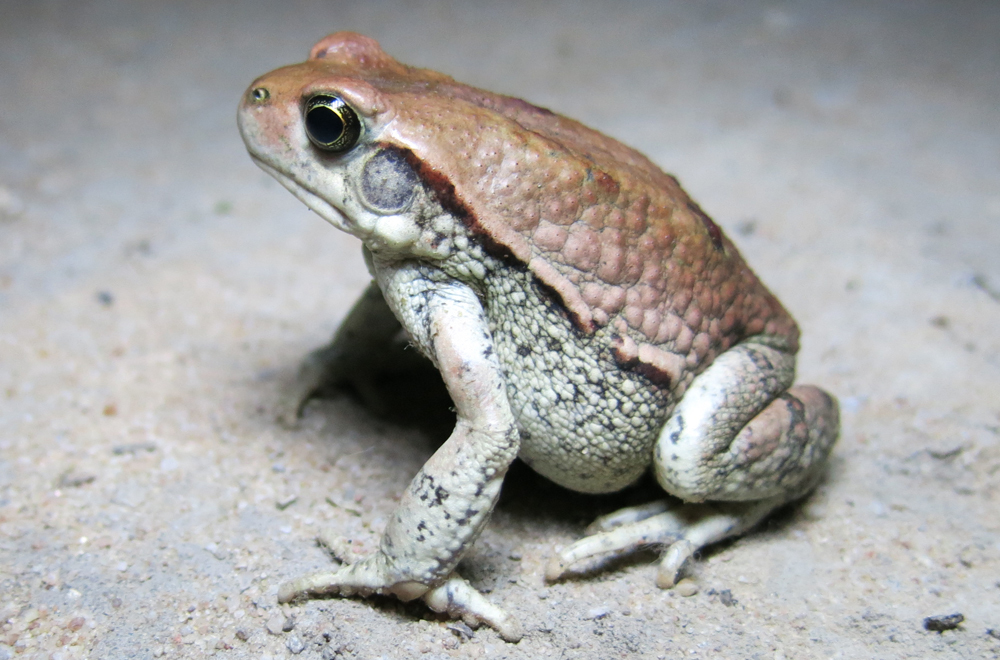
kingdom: Animalia
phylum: Chordata
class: Amphibia
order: Anura
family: Bufonidae
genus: Schismaderma
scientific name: Schismaderma carens
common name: African split-skin toad
